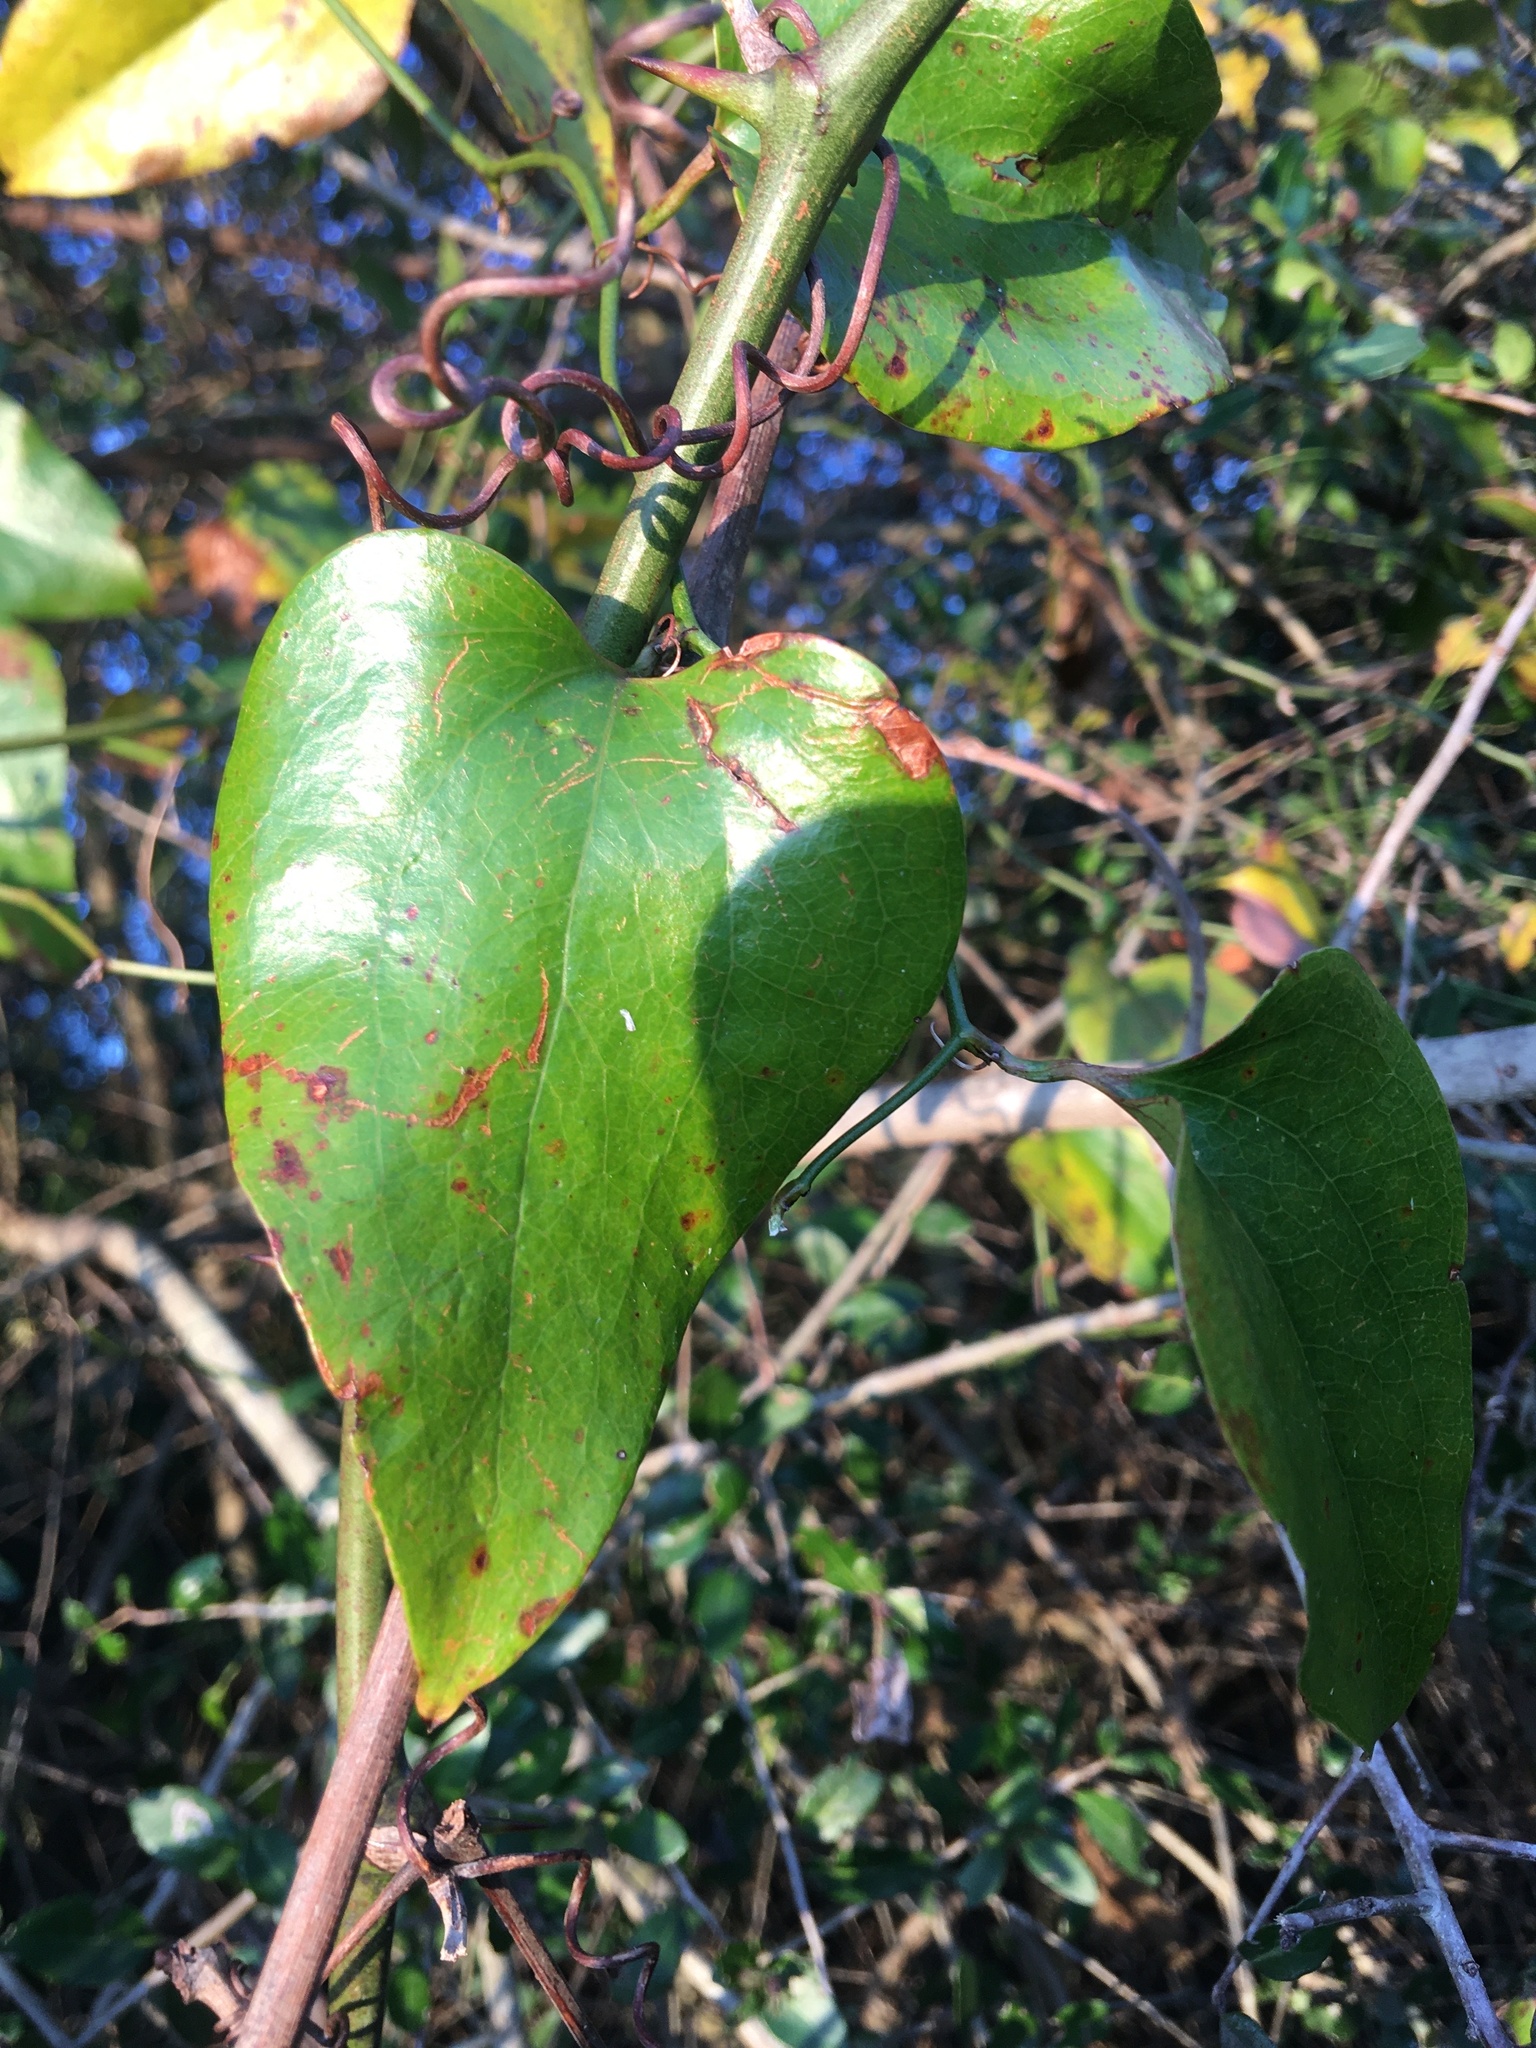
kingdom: Plantae
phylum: Tracheophyta
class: Liliopsida
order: Liliales
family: Smilacaceae
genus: Smilax
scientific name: Smilax bona-nox
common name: Catbrier
